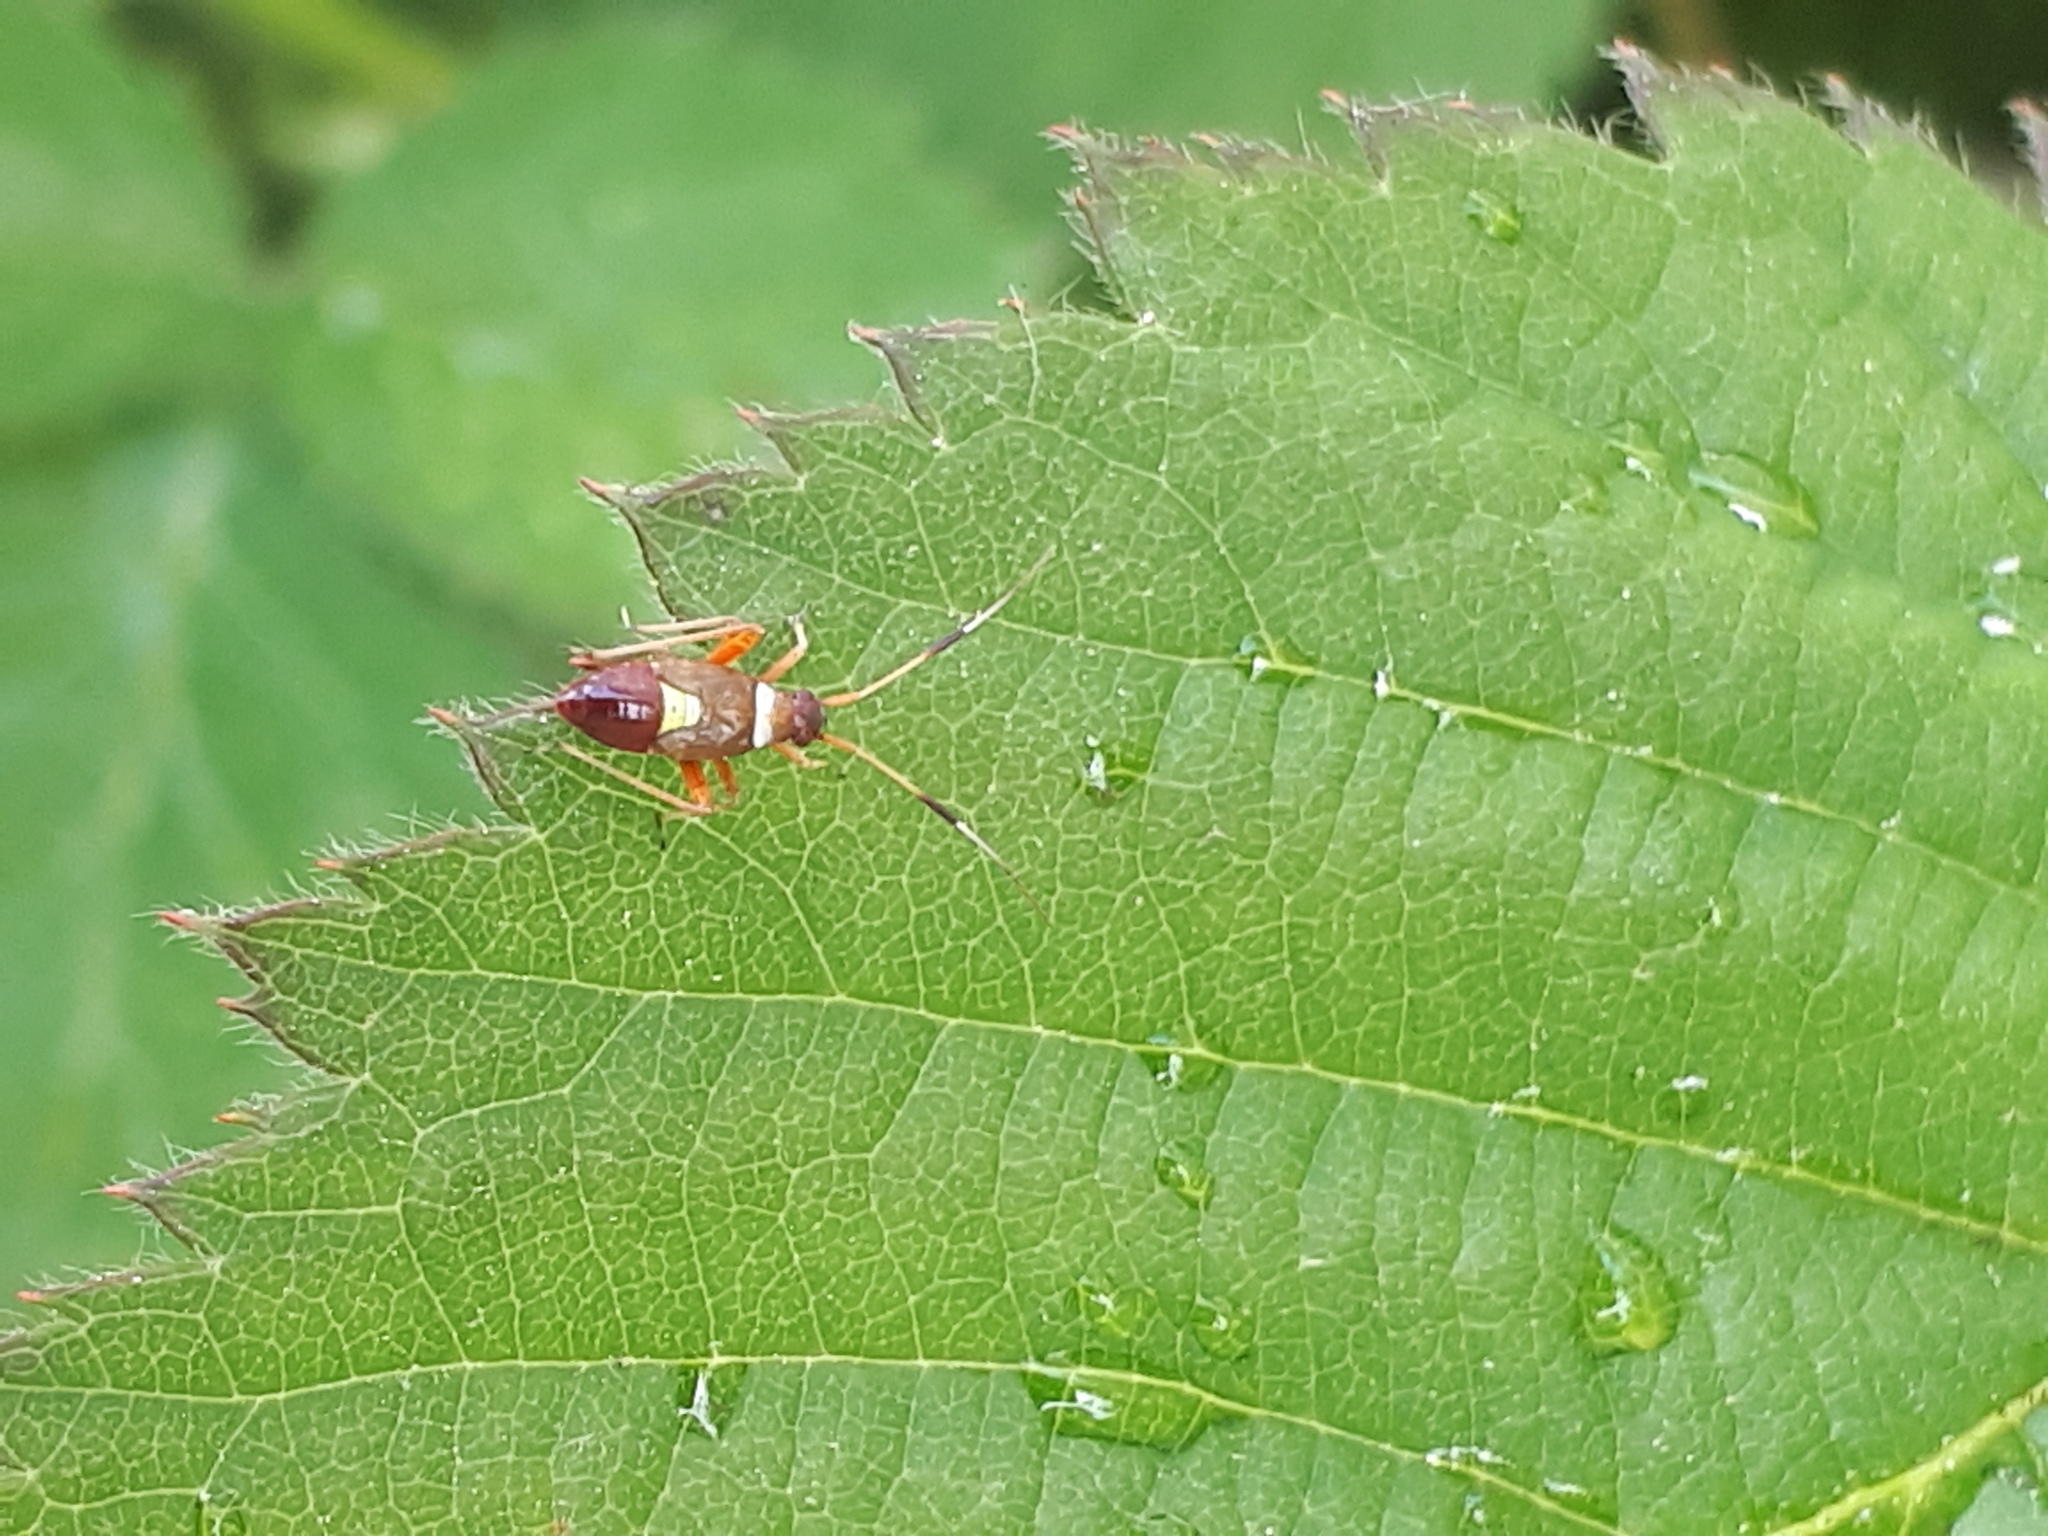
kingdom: Animalia
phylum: Arthropoda
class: Insecta
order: Hemiptera
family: Miridae
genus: Closterotomus
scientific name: Closterotomus biclavatus
